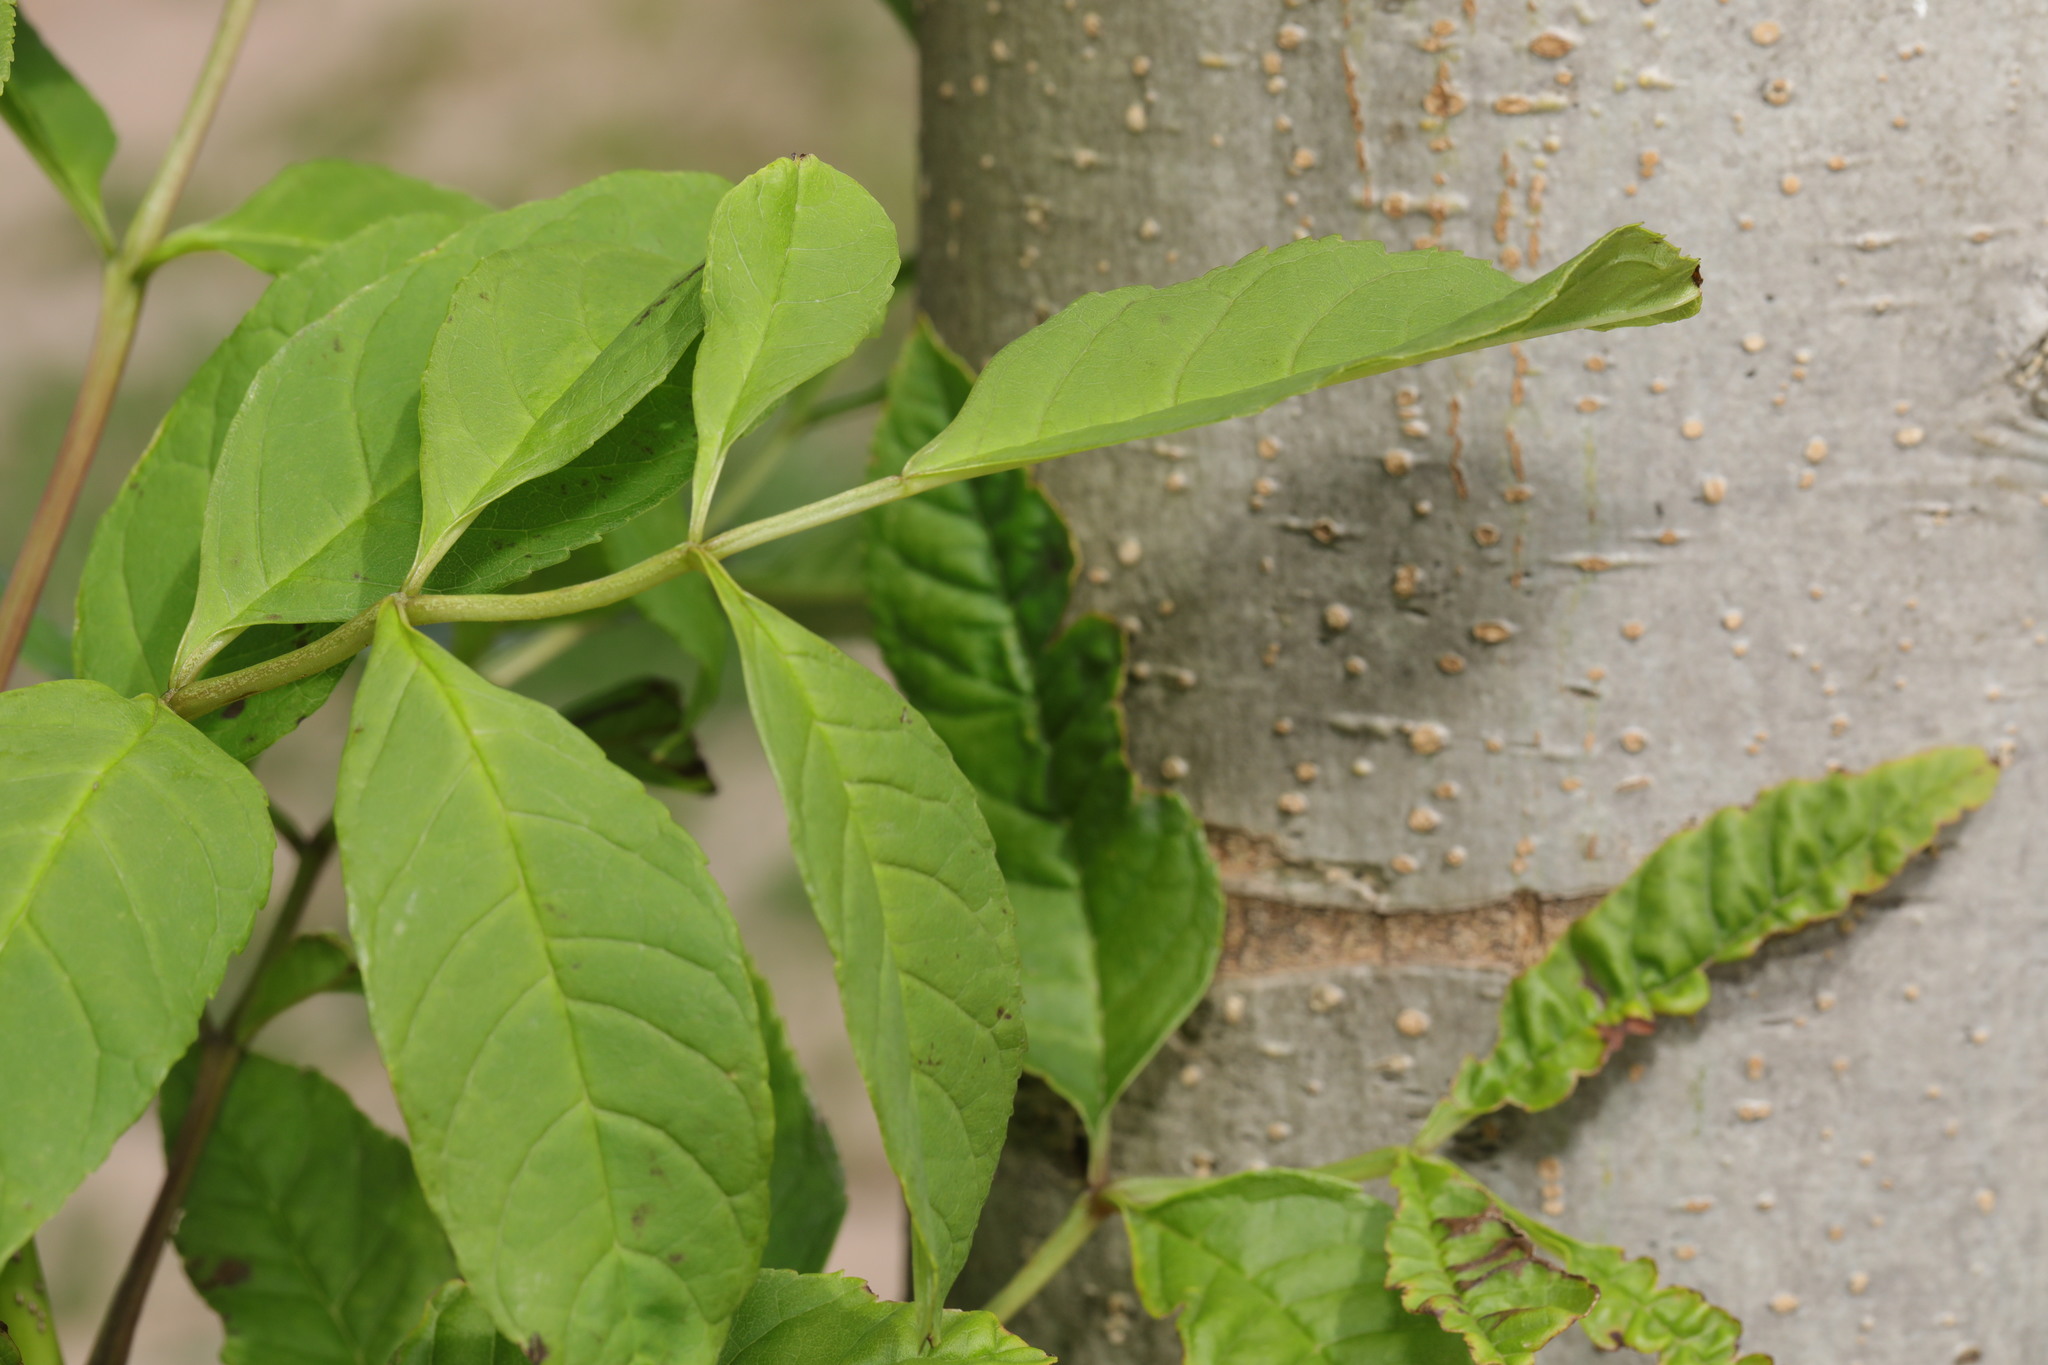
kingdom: Plantae
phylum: Tracheophyta
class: Magnoliopsida
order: Lamiales
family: Oleaceae
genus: Fraxinus
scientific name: Fraxinus excelsior
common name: European ash
